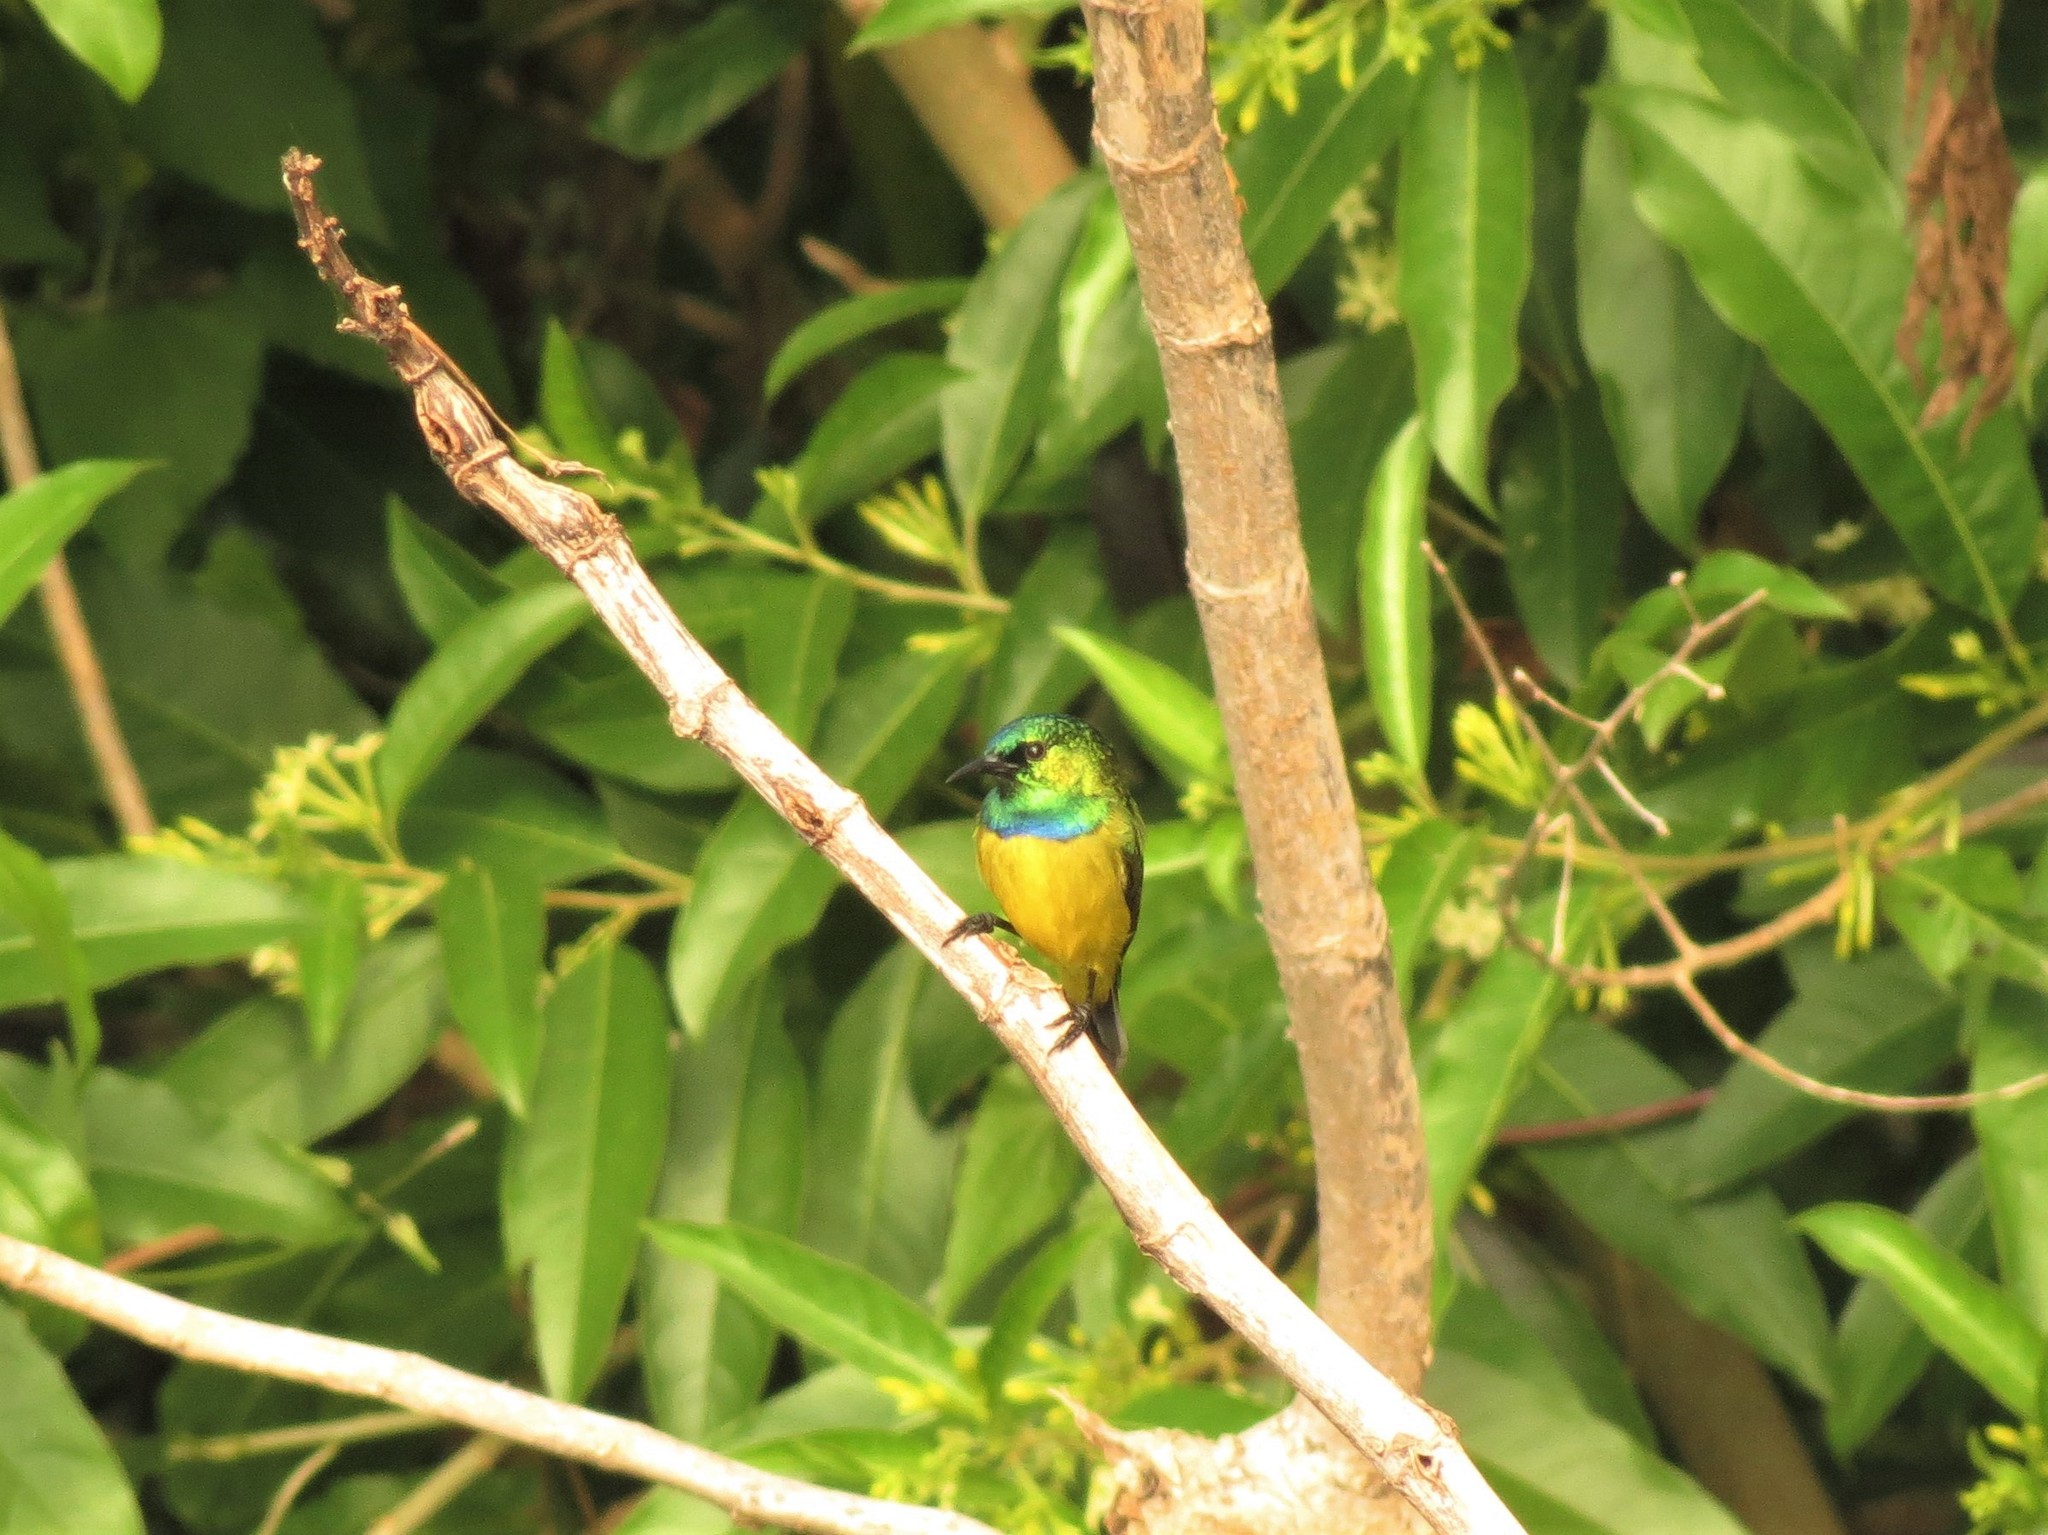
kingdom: Animalia
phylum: Chordata
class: Aves
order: Passeriformes
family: Nectariniidae
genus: Hedydipna
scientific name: Hedydipna collaris
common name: Collared sunbird
